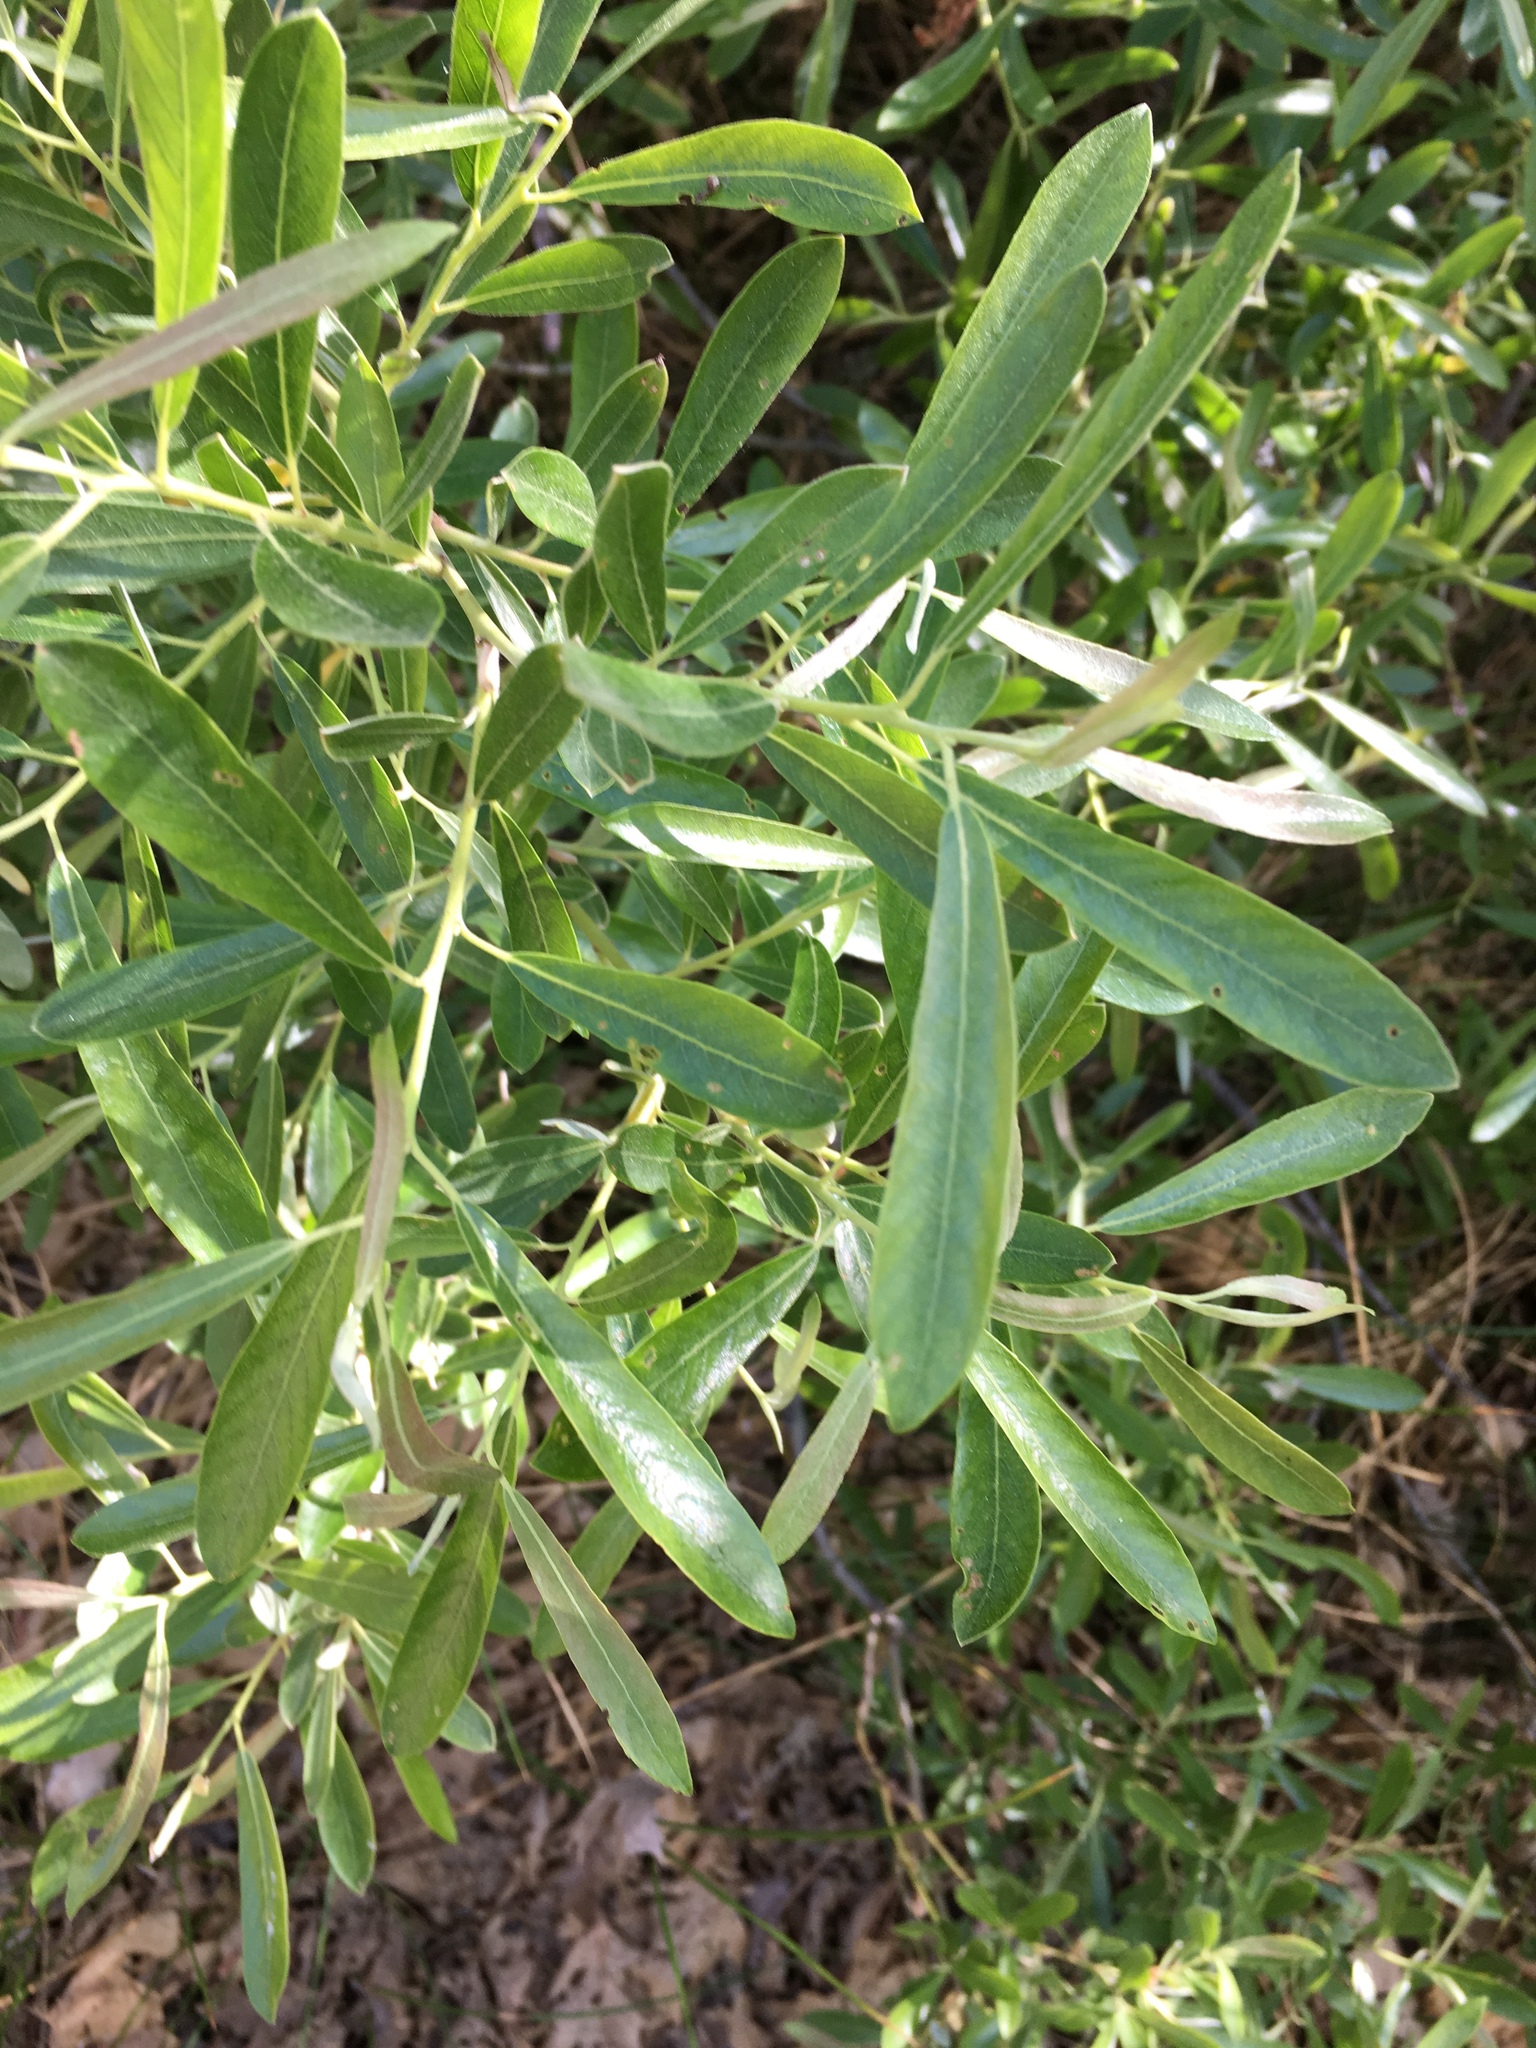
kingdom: Plantae
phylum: Tracheophyta
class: Magnoliopsida
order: Malpighiales
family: Salicaceae
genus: Salix
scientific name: Salix scouleriana
